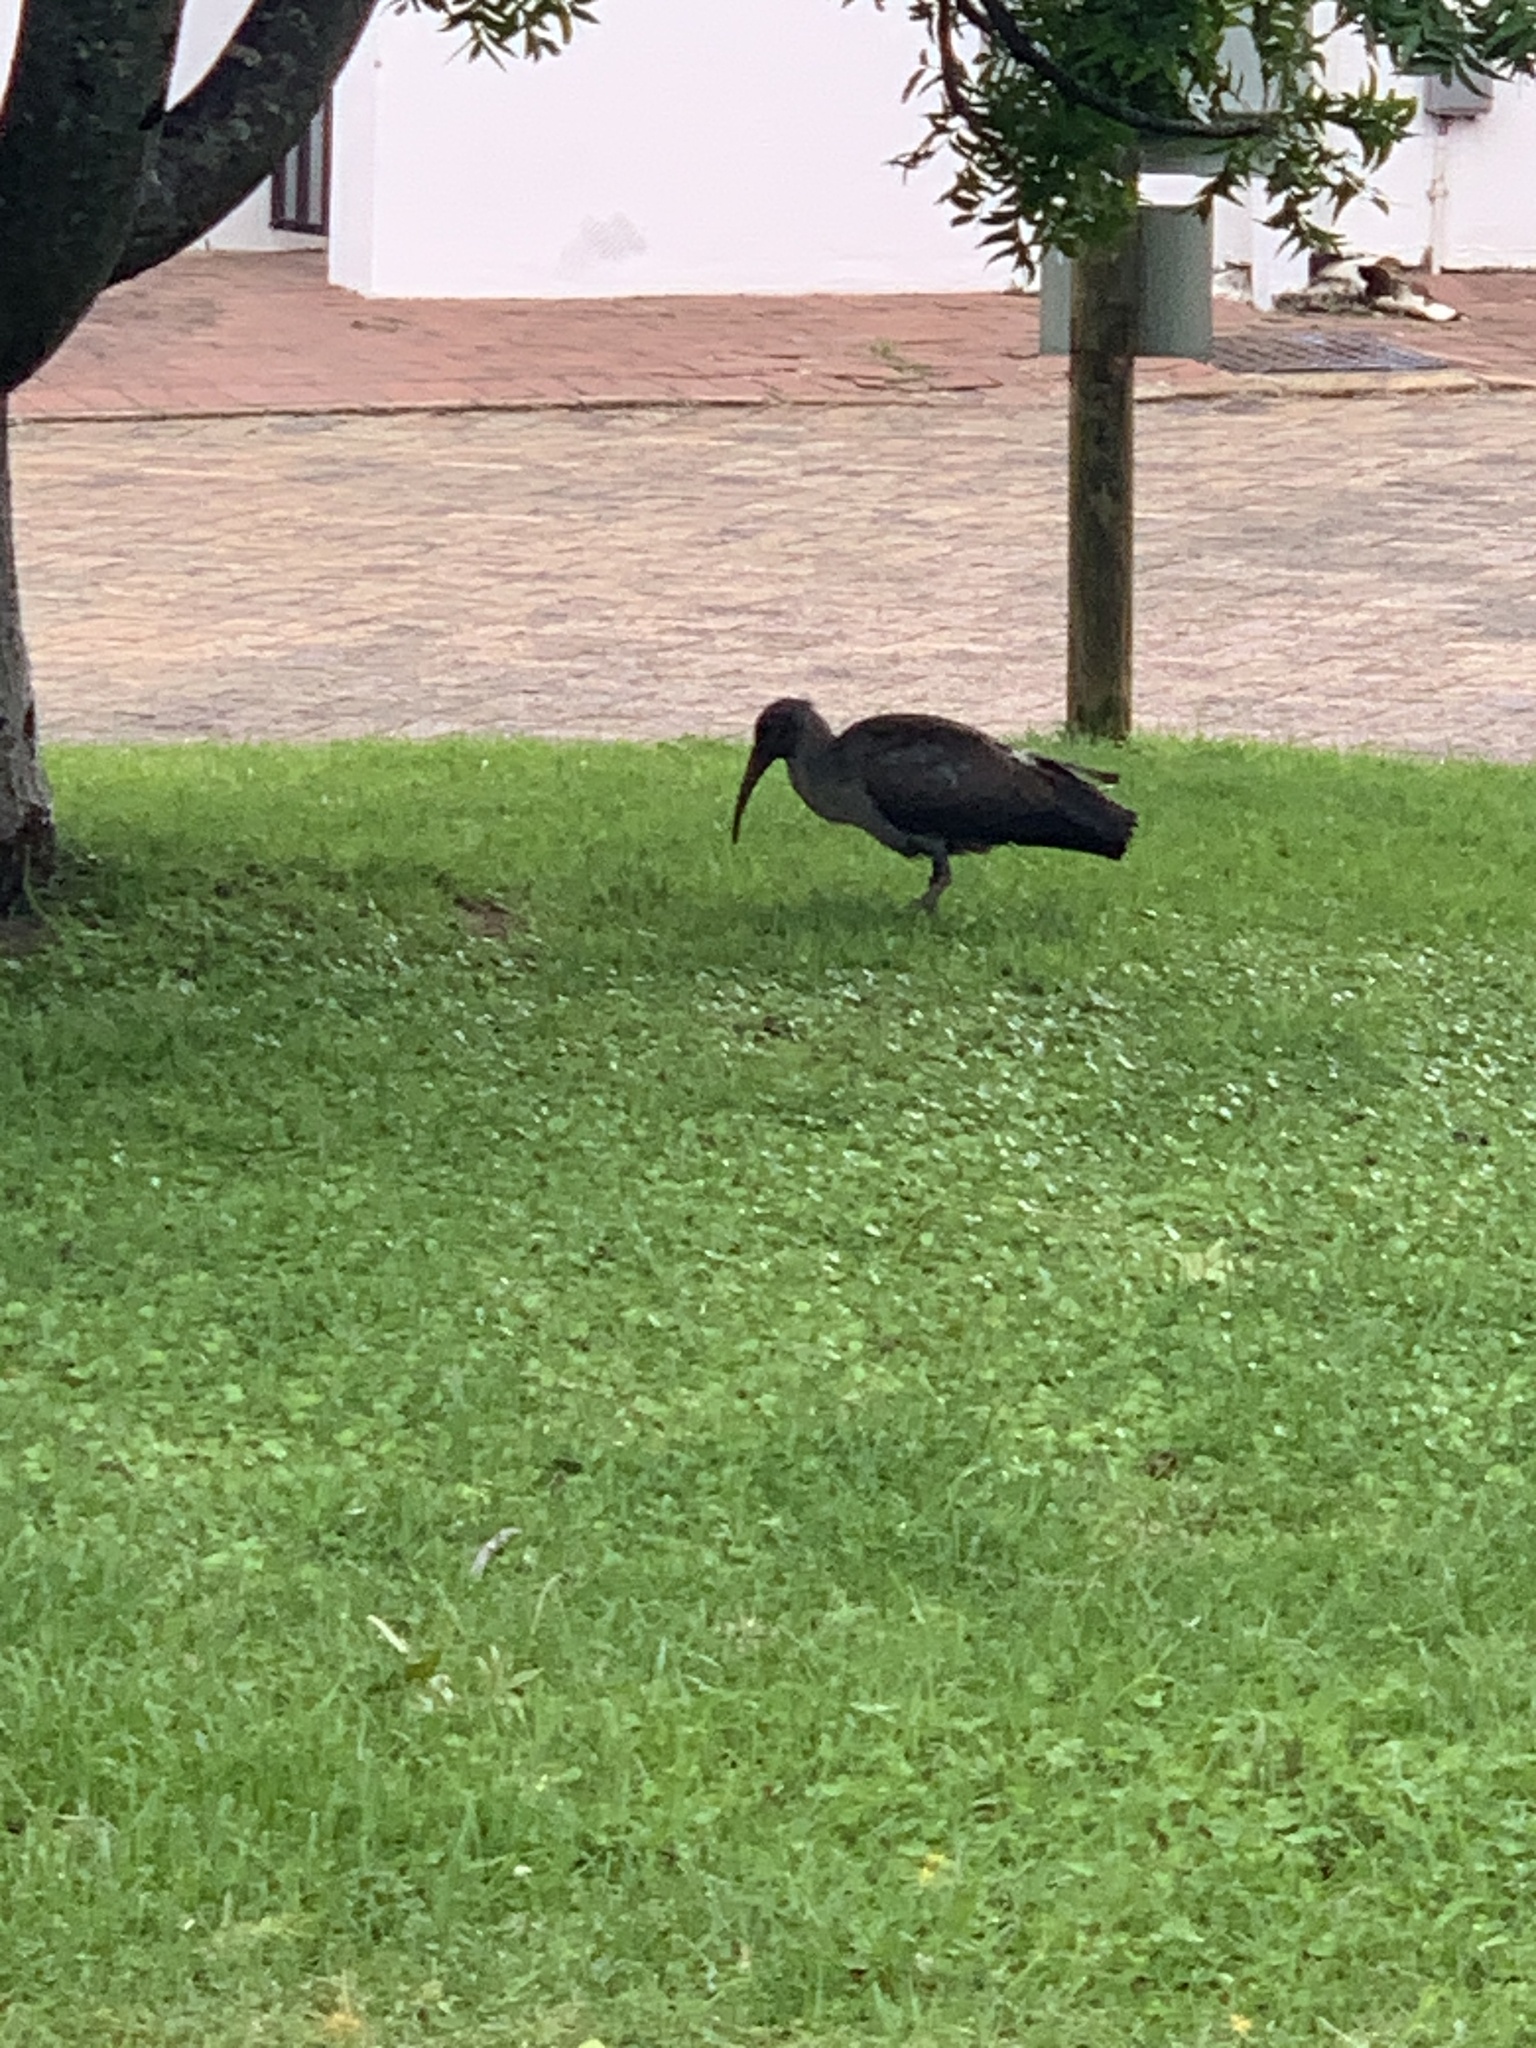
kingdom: Animalia
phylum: Chordata
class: Aves
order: Pelecaniformes
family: Threskiornithidae
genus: Bostrychia
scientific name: Bostrychia hagedash
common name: Hadada ibis
